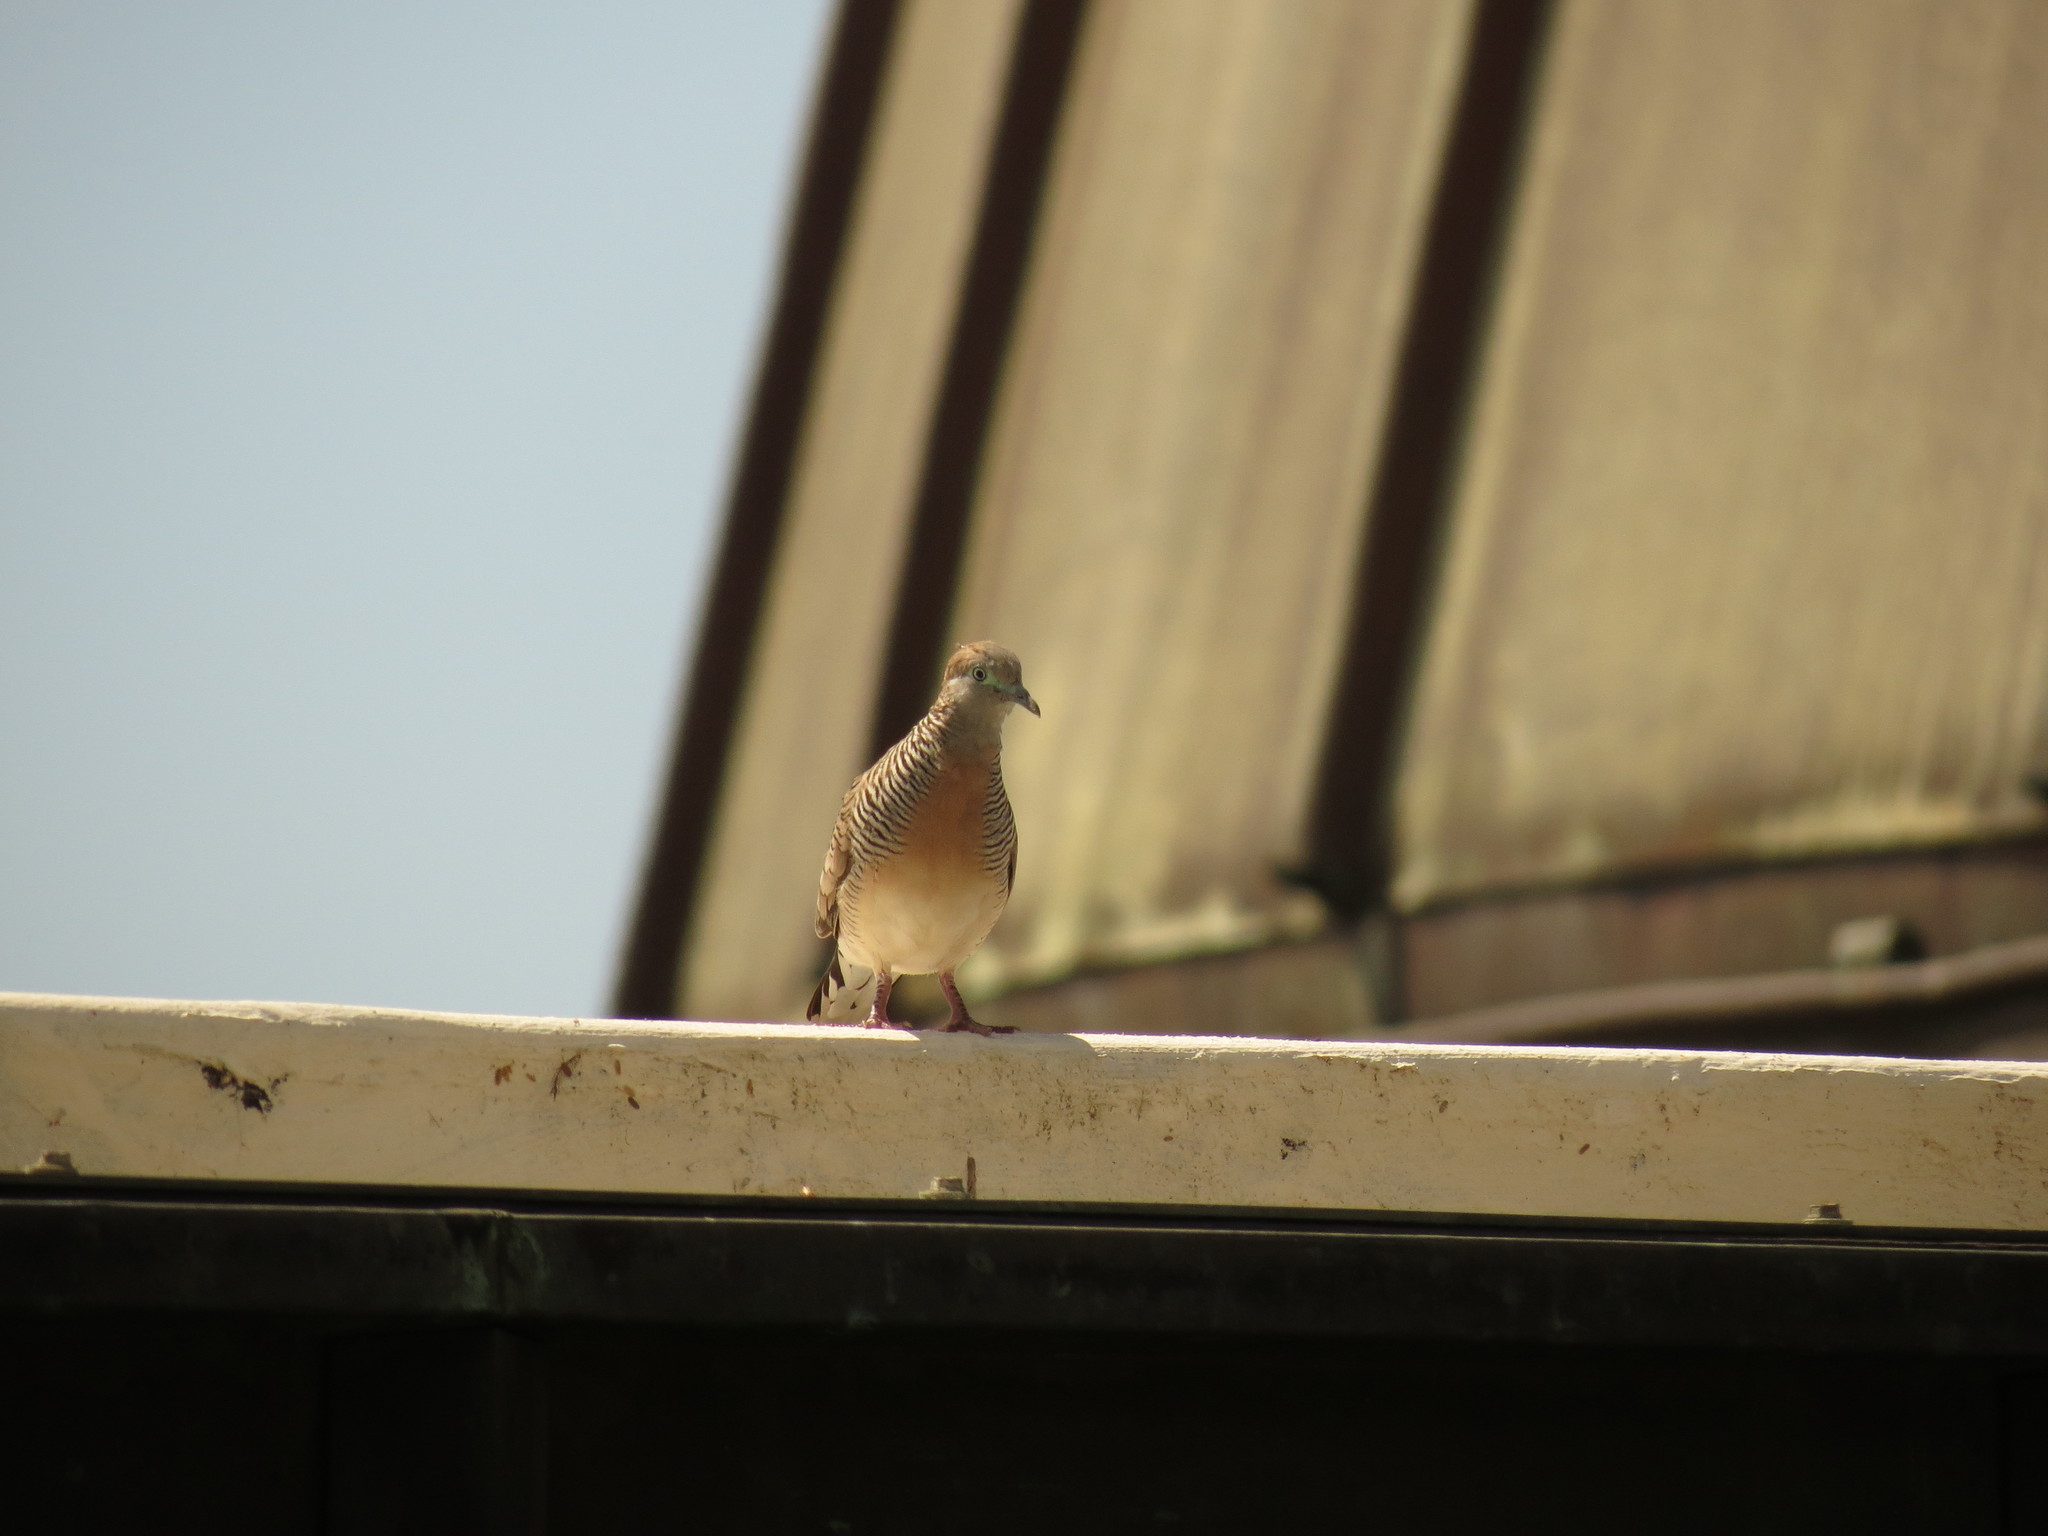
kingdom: Animalia
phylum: Chordata
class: Aves
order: Columbiformes
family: Columbidae
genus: Geopelia
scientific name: Geopelia striata
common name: Zebra dove
